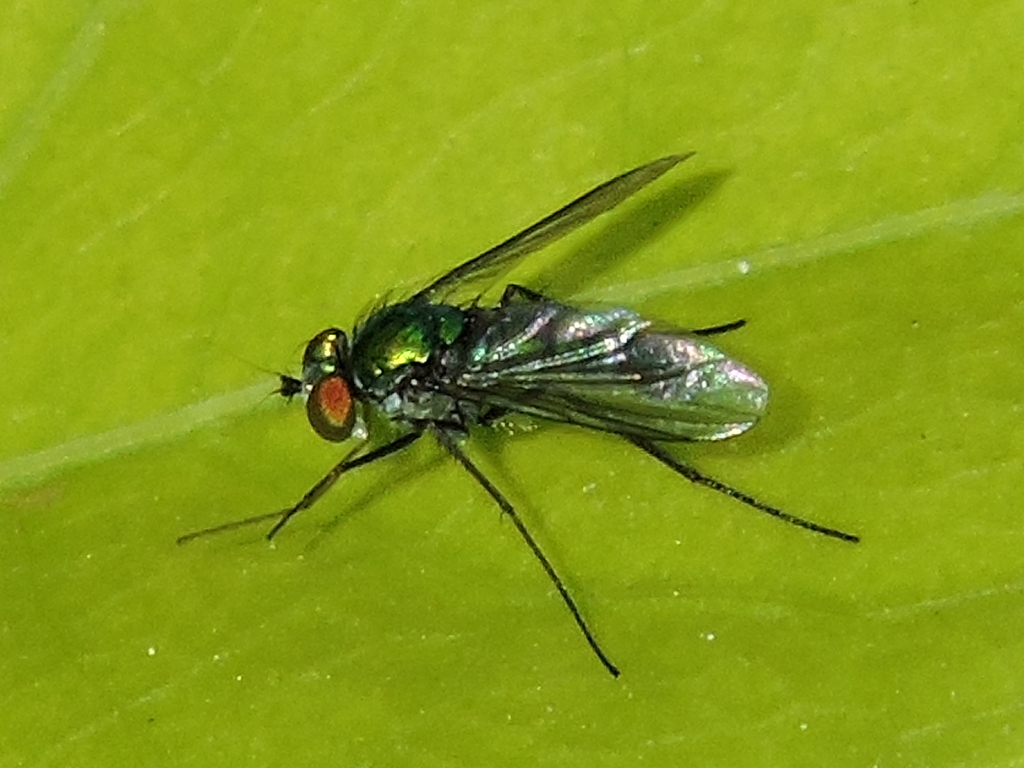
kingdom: Animalia
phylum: Arthropoda
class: Insecta
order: Diptera
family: Dolichopodidae
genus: Condylostylus
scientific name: Condylostylus longicornis
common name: Long-legged fly
